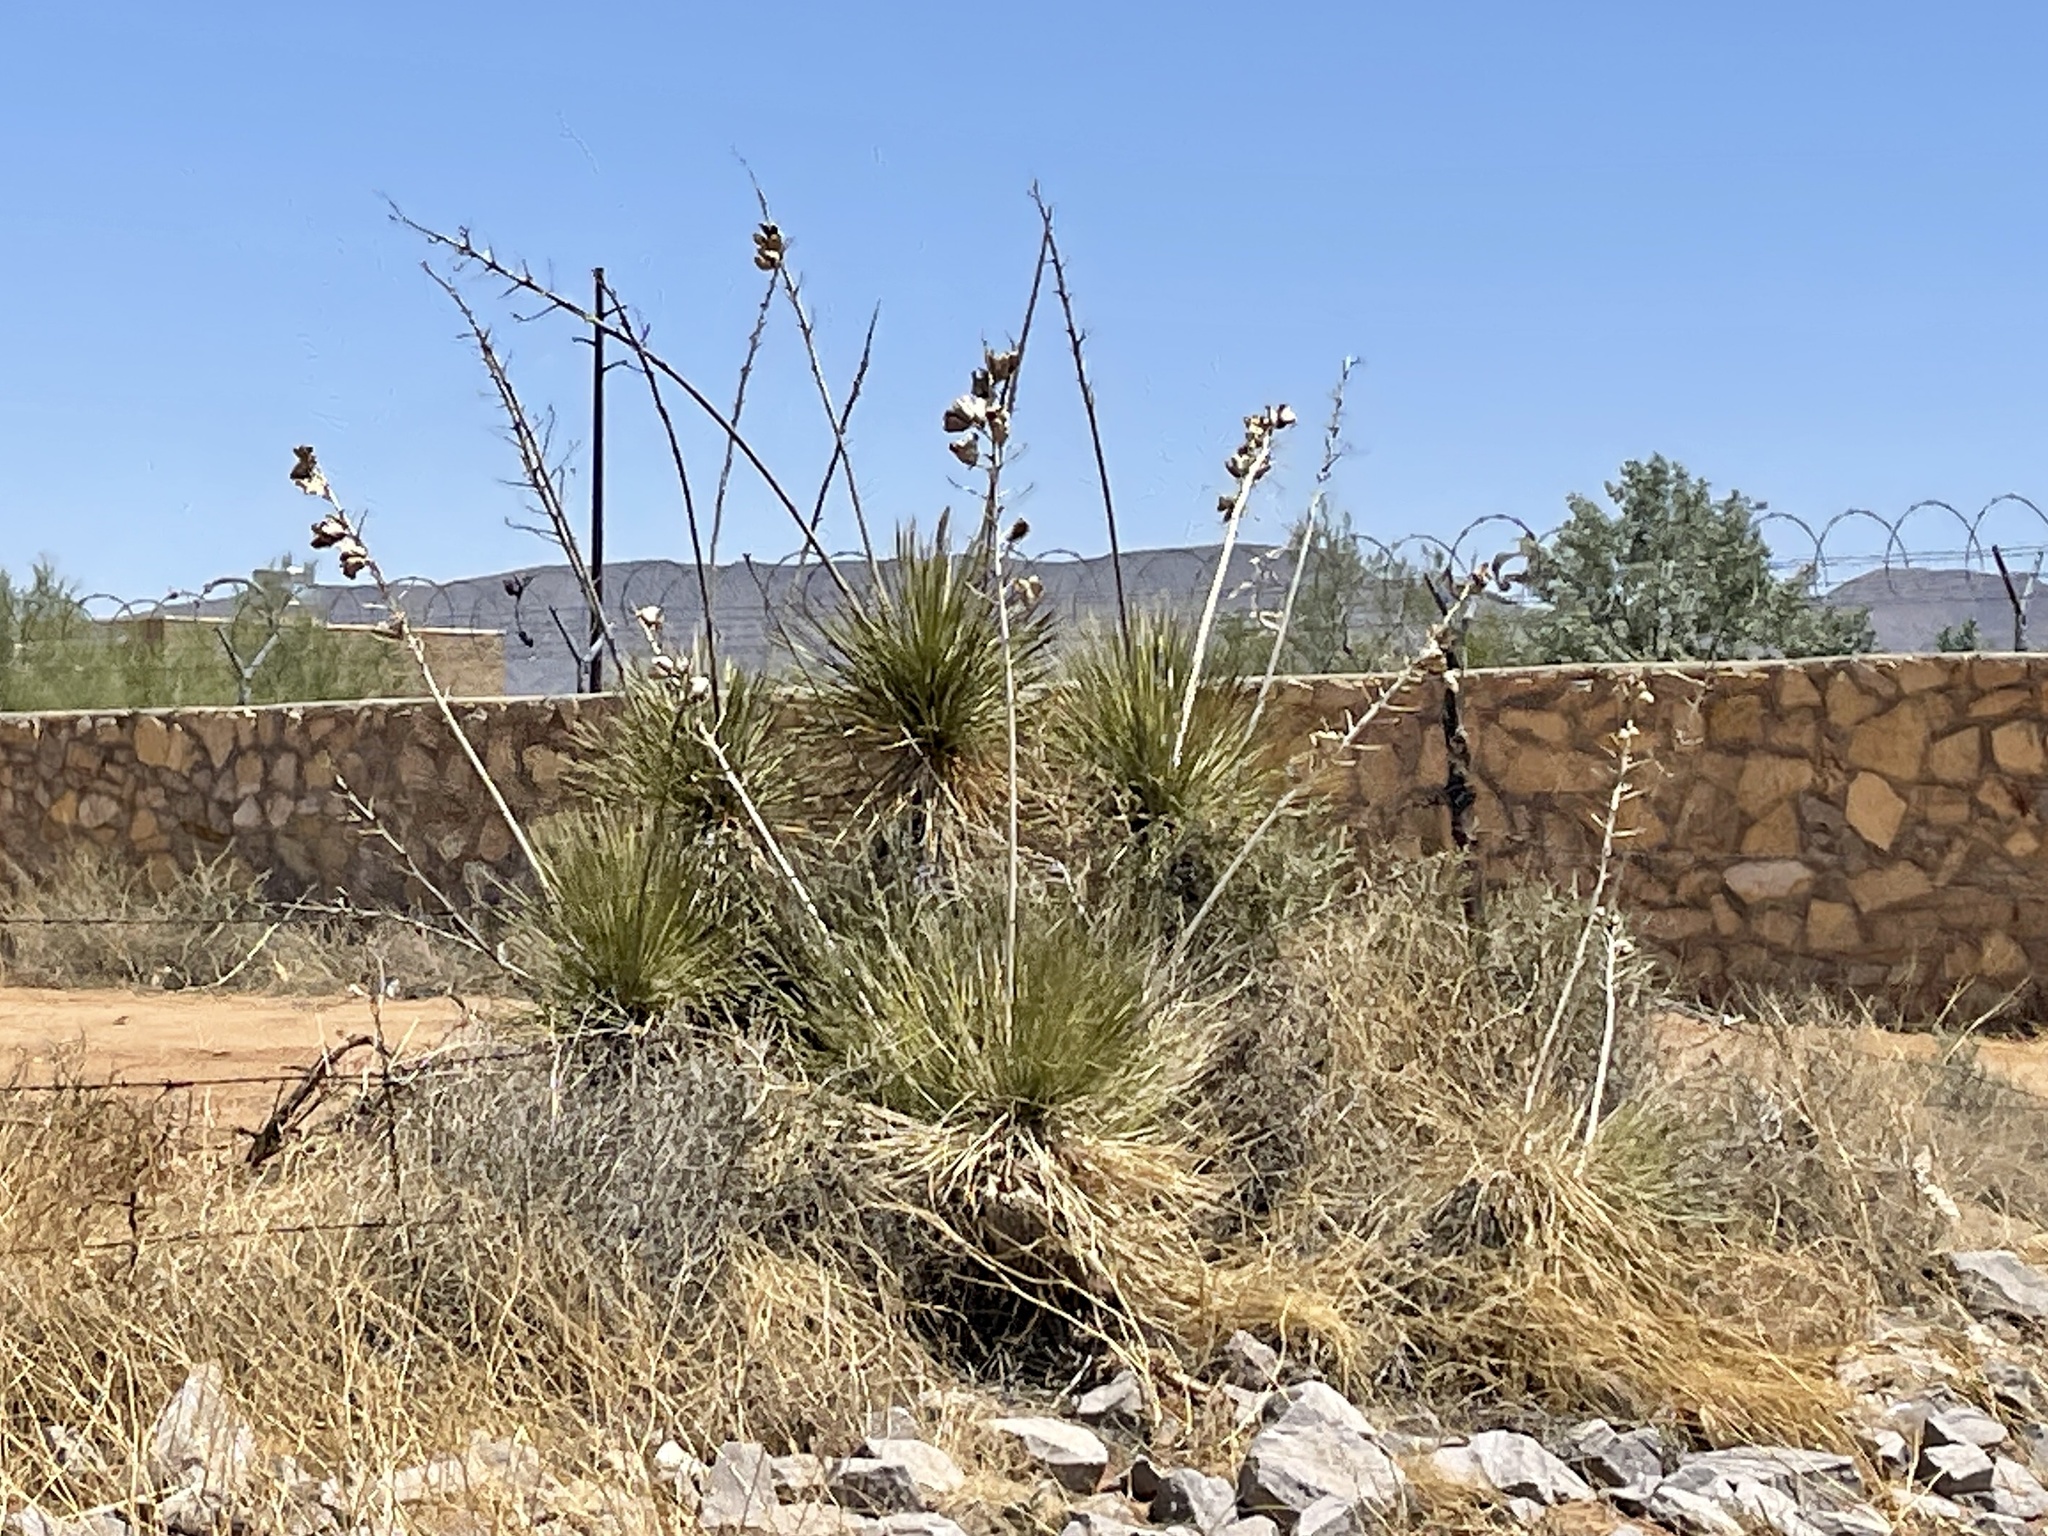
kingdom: Plantae
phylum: Tracheophyta
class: Liliopsida
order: Asparagales
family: Asparagaceae
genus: Yucca
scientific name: Yucca elata
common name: Palmella
